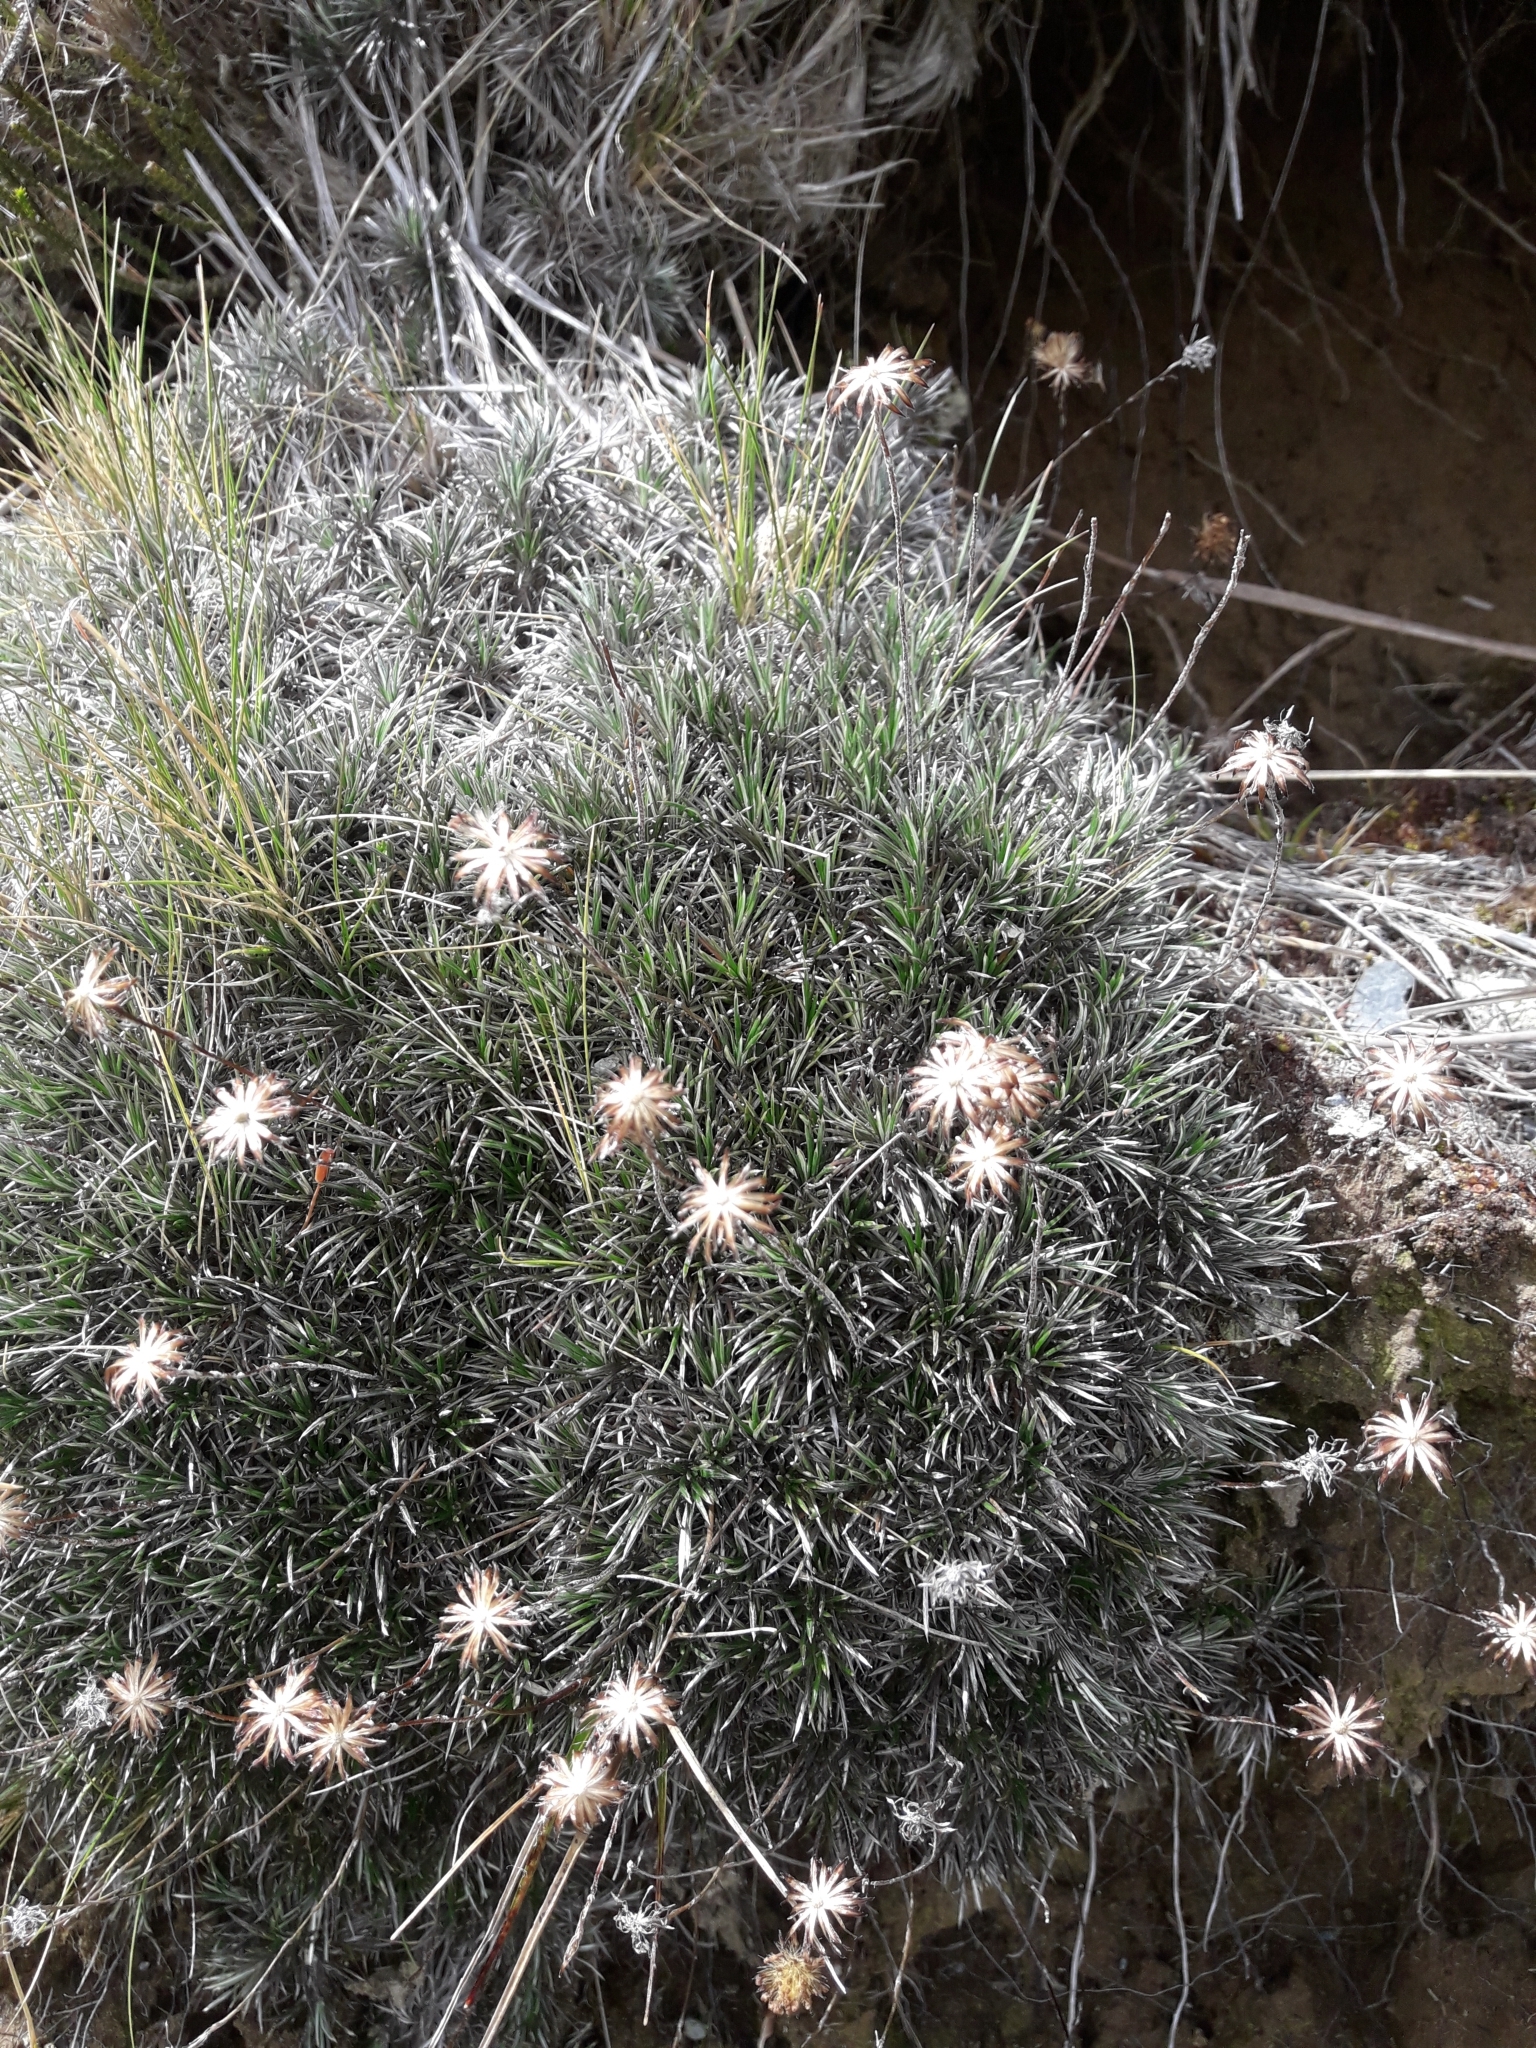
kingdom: Plantae
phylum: Tracheophyta
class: Magnoliopsida
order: Asterales
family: Asteraceae
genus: Celmisia
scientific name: Celmisia laricifolia
